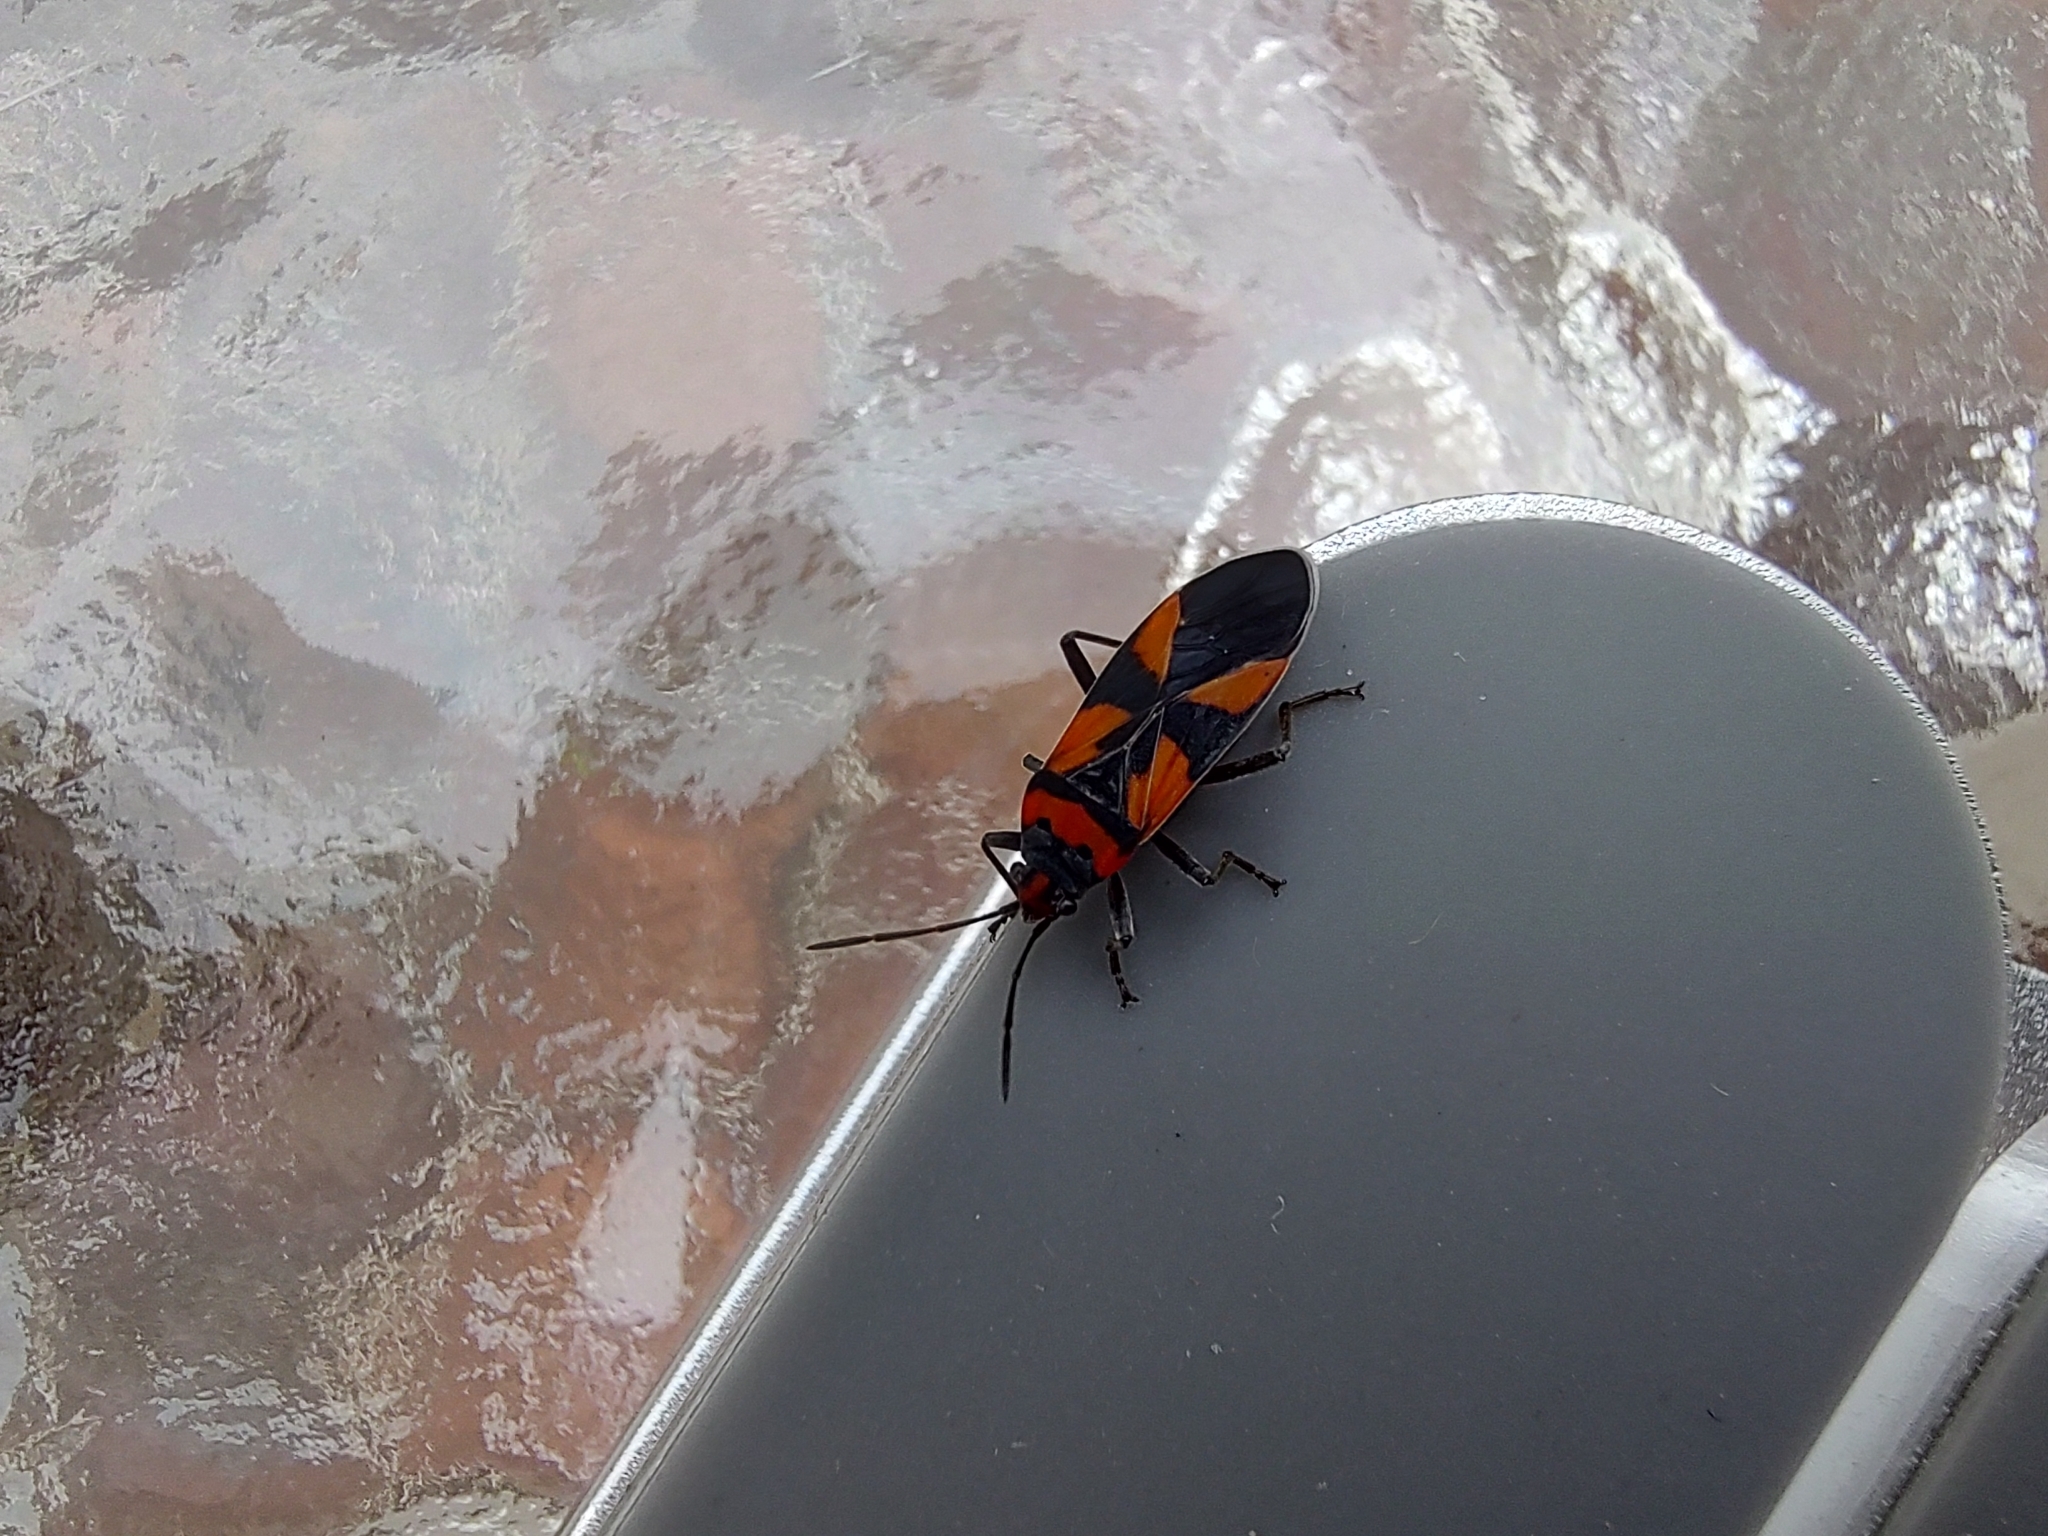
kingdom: Animalia
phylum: Arthropoda
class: Insecta
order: Hemiptera
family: Lygaeidae
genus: Lygaeus
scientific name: Lygaeus analis
